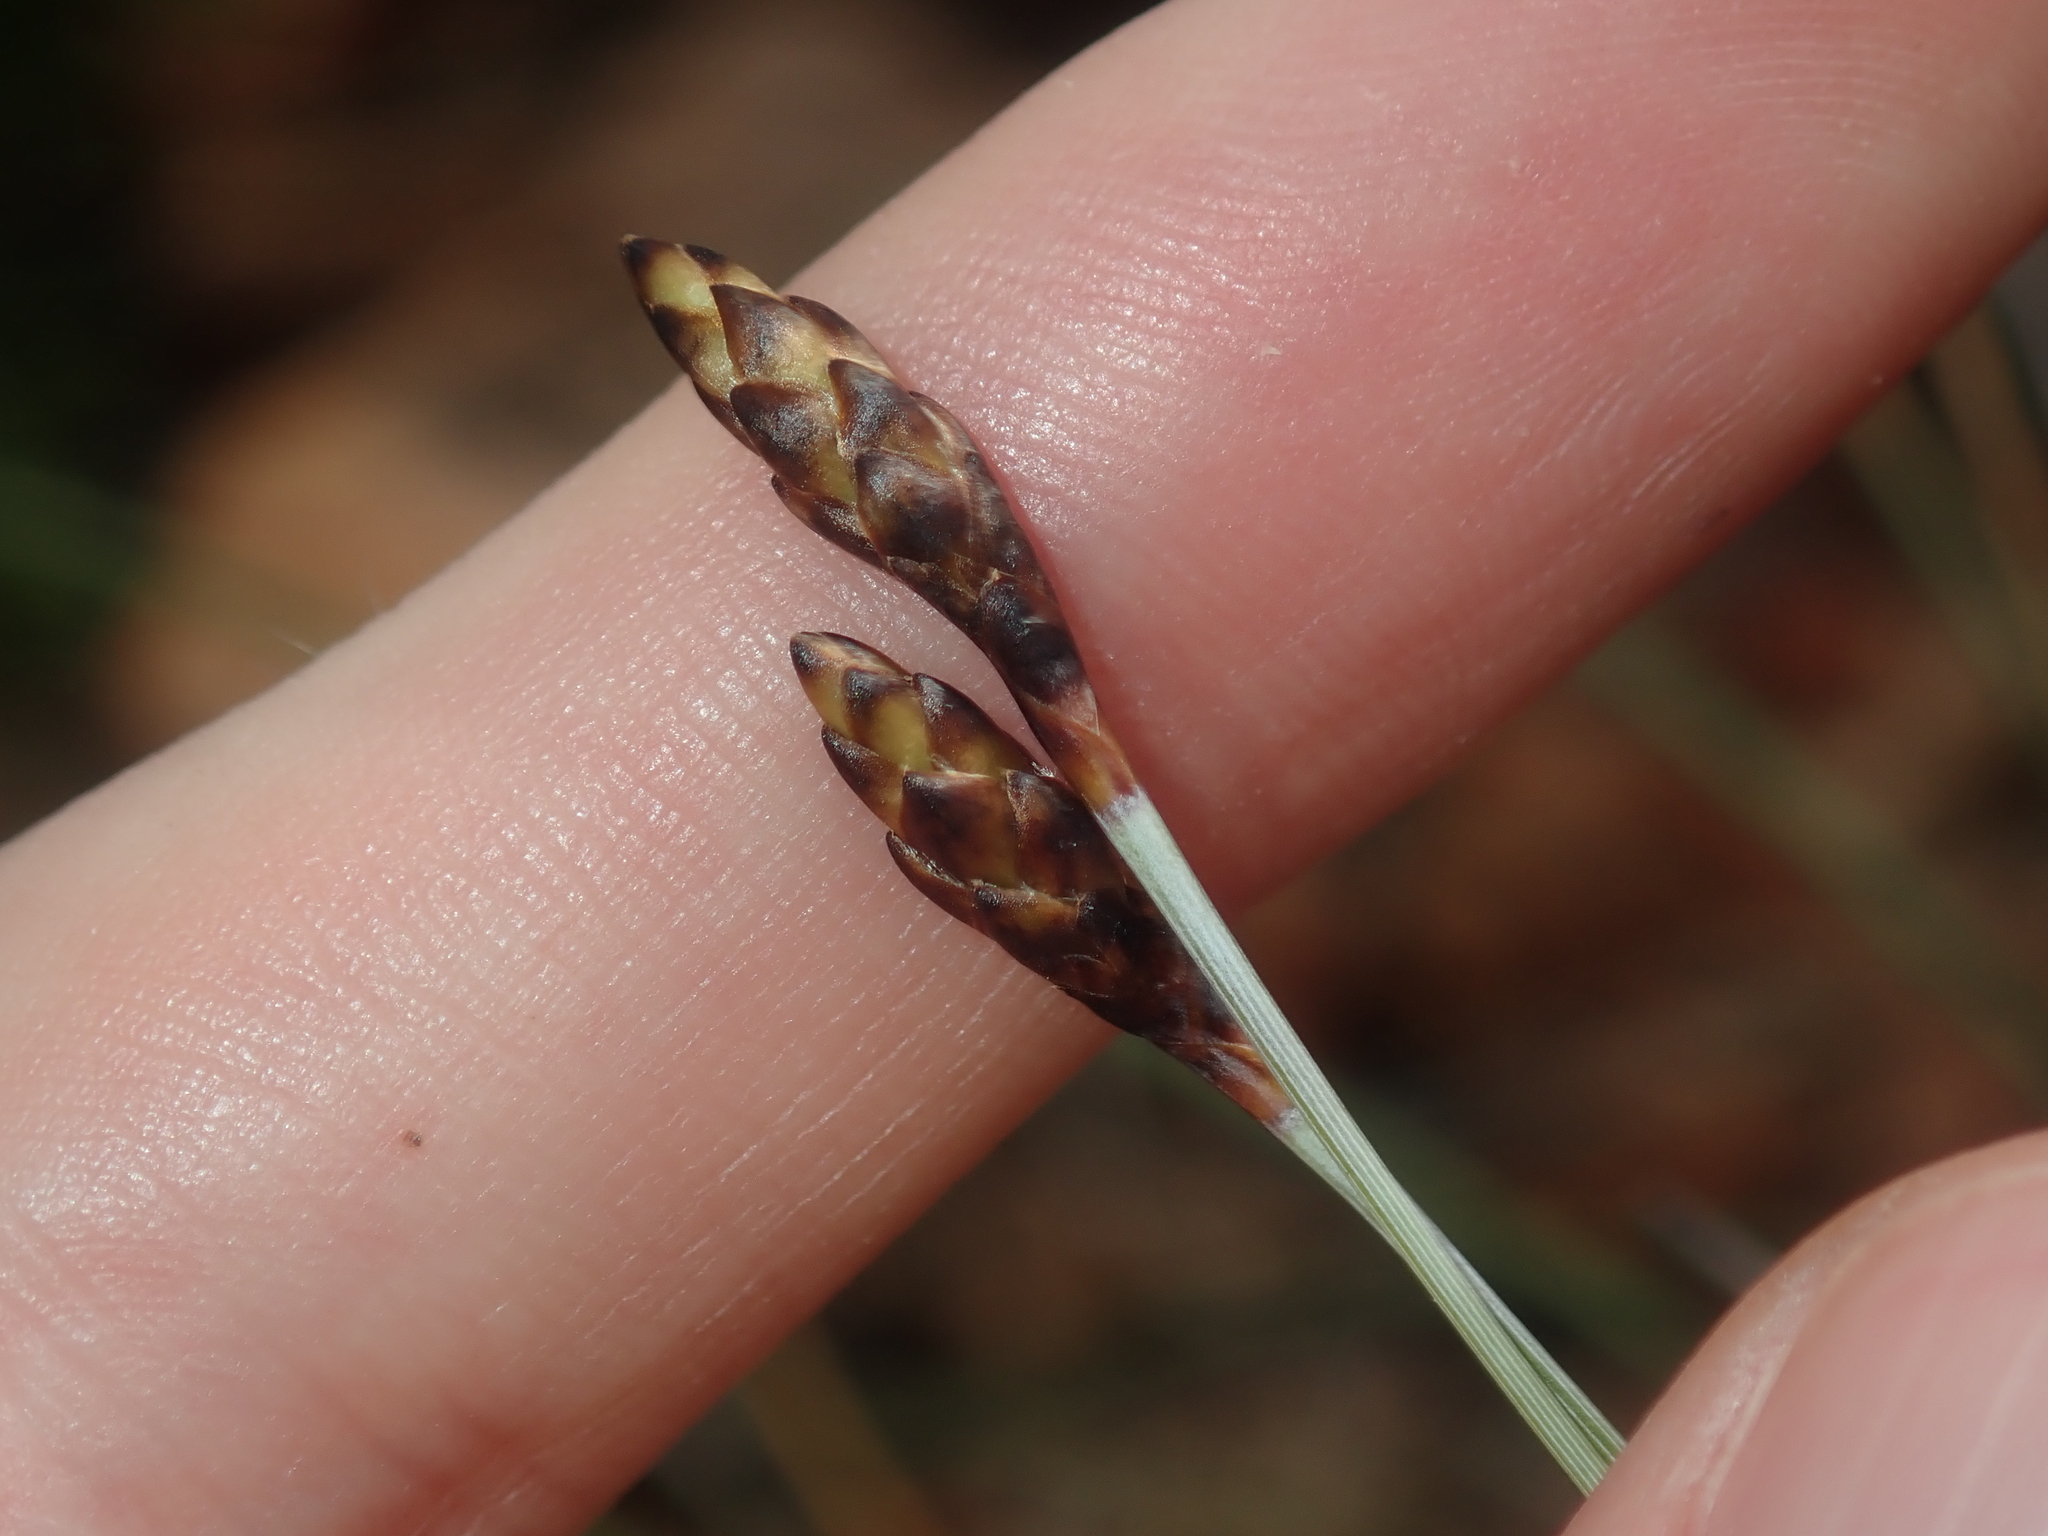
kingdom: Plantae
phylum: Tracheophyta
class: Liliopsida
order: Poales
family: Ecdeiocoleaceae
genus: Ecdeiocolea
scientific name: Ecdeiocolea monostachya
